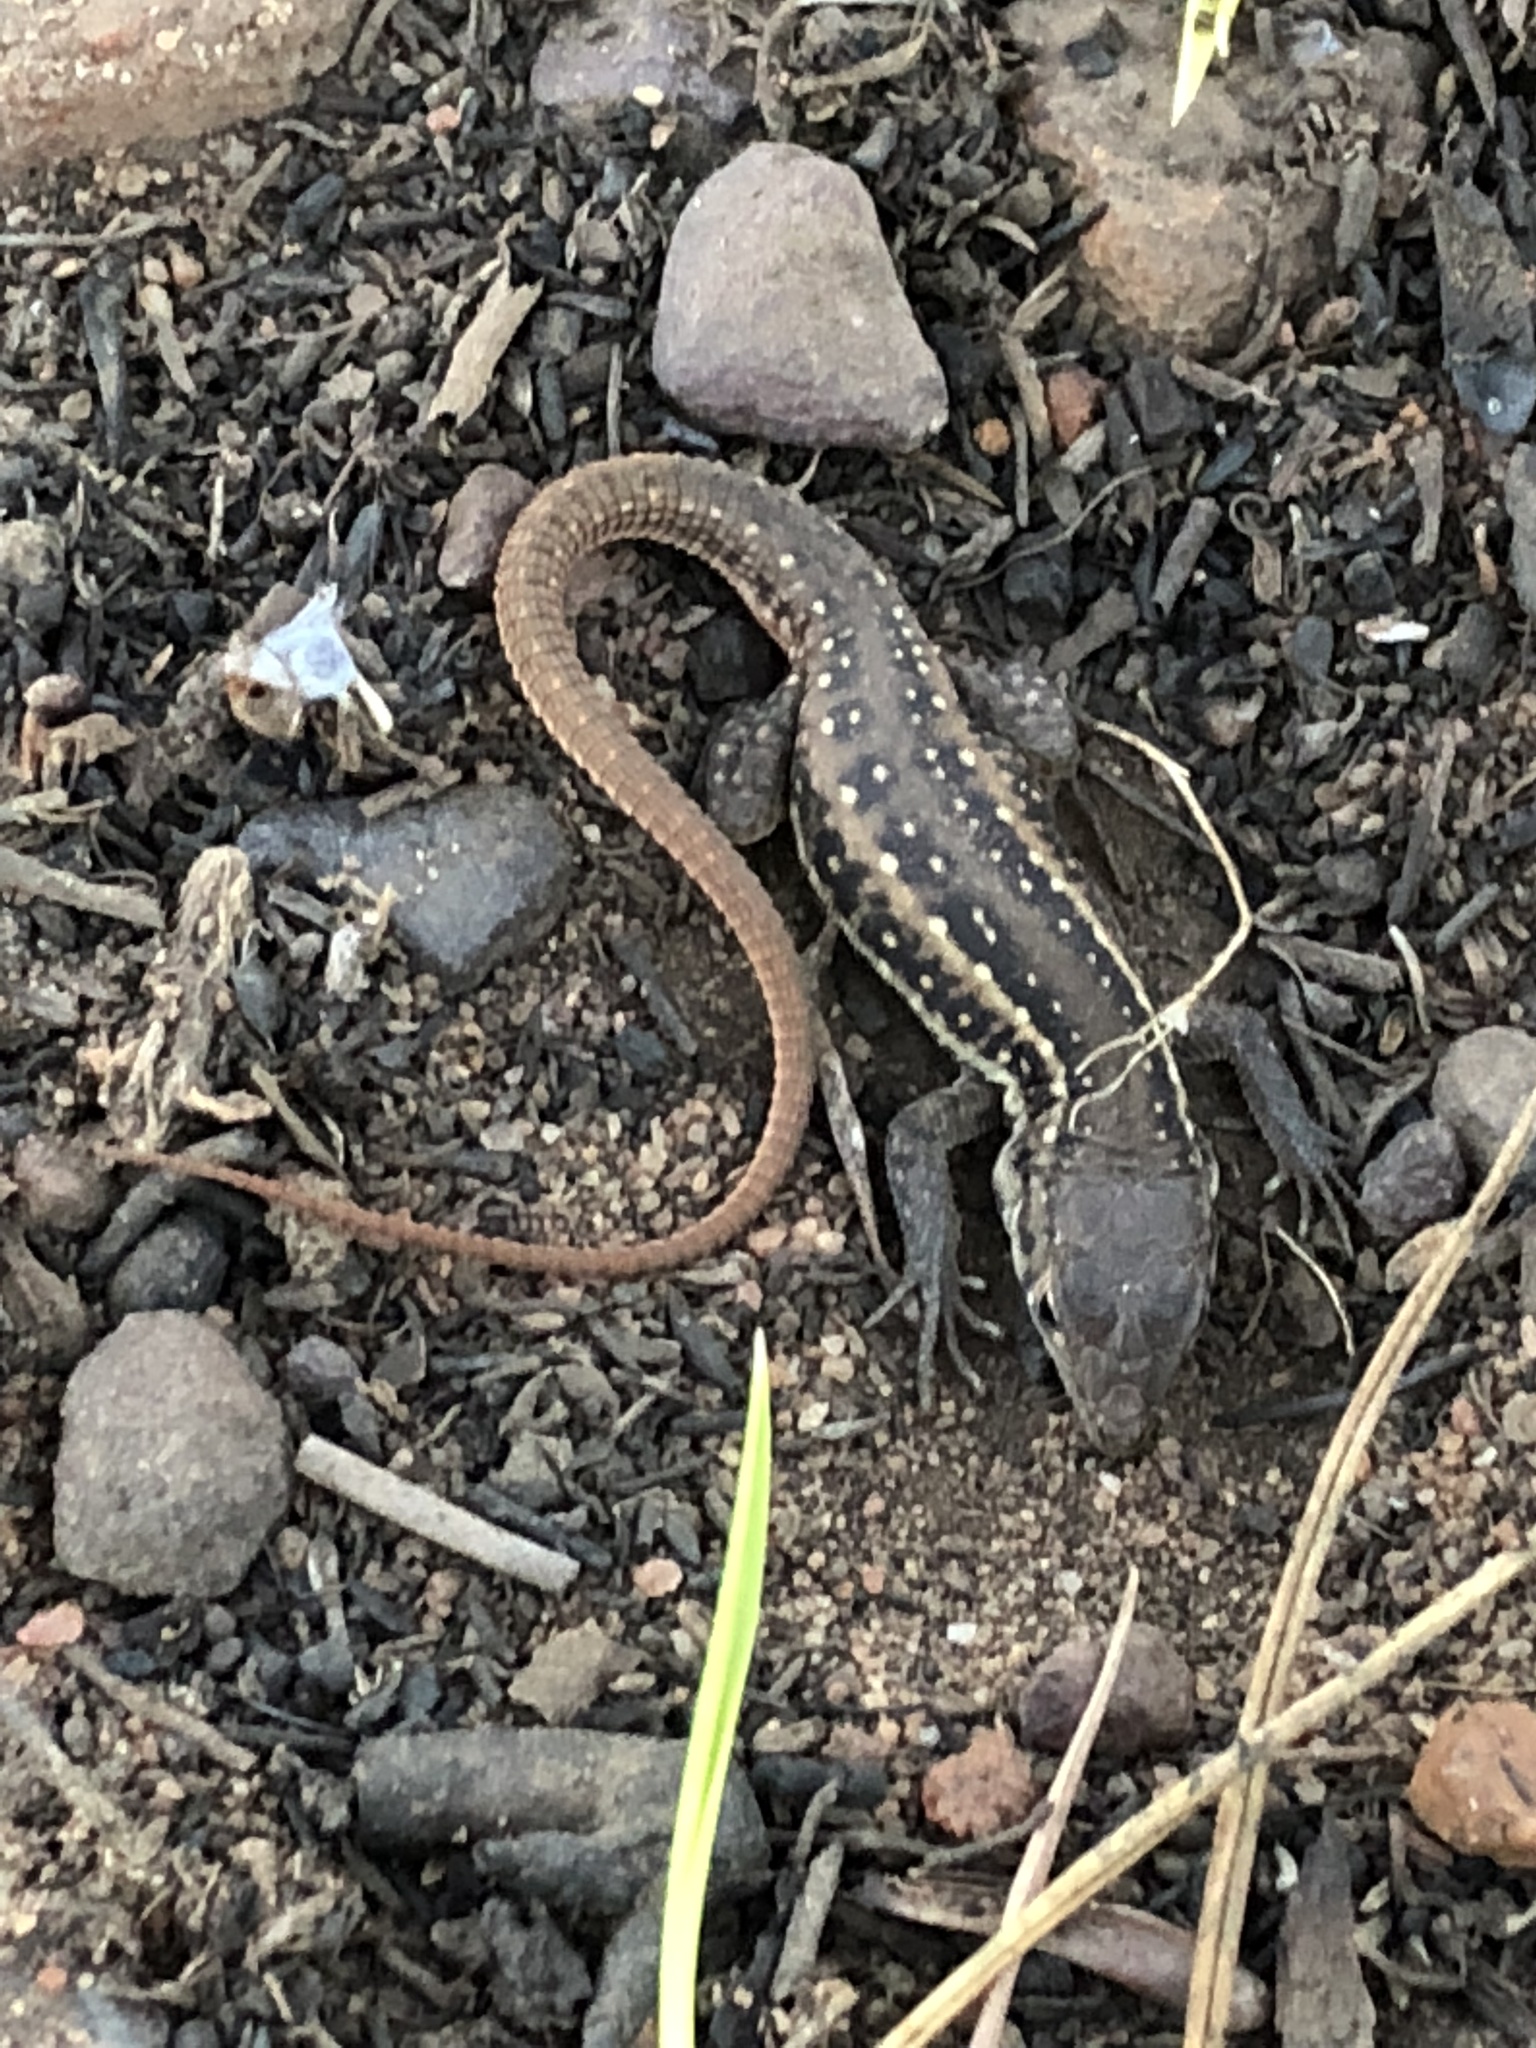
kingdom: Animalia
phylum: Chordata
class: Squamata
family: Lacertidae
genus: Pedioplanis
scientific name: Pedioplanis lineoocellata
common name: Spotted sand lizard
